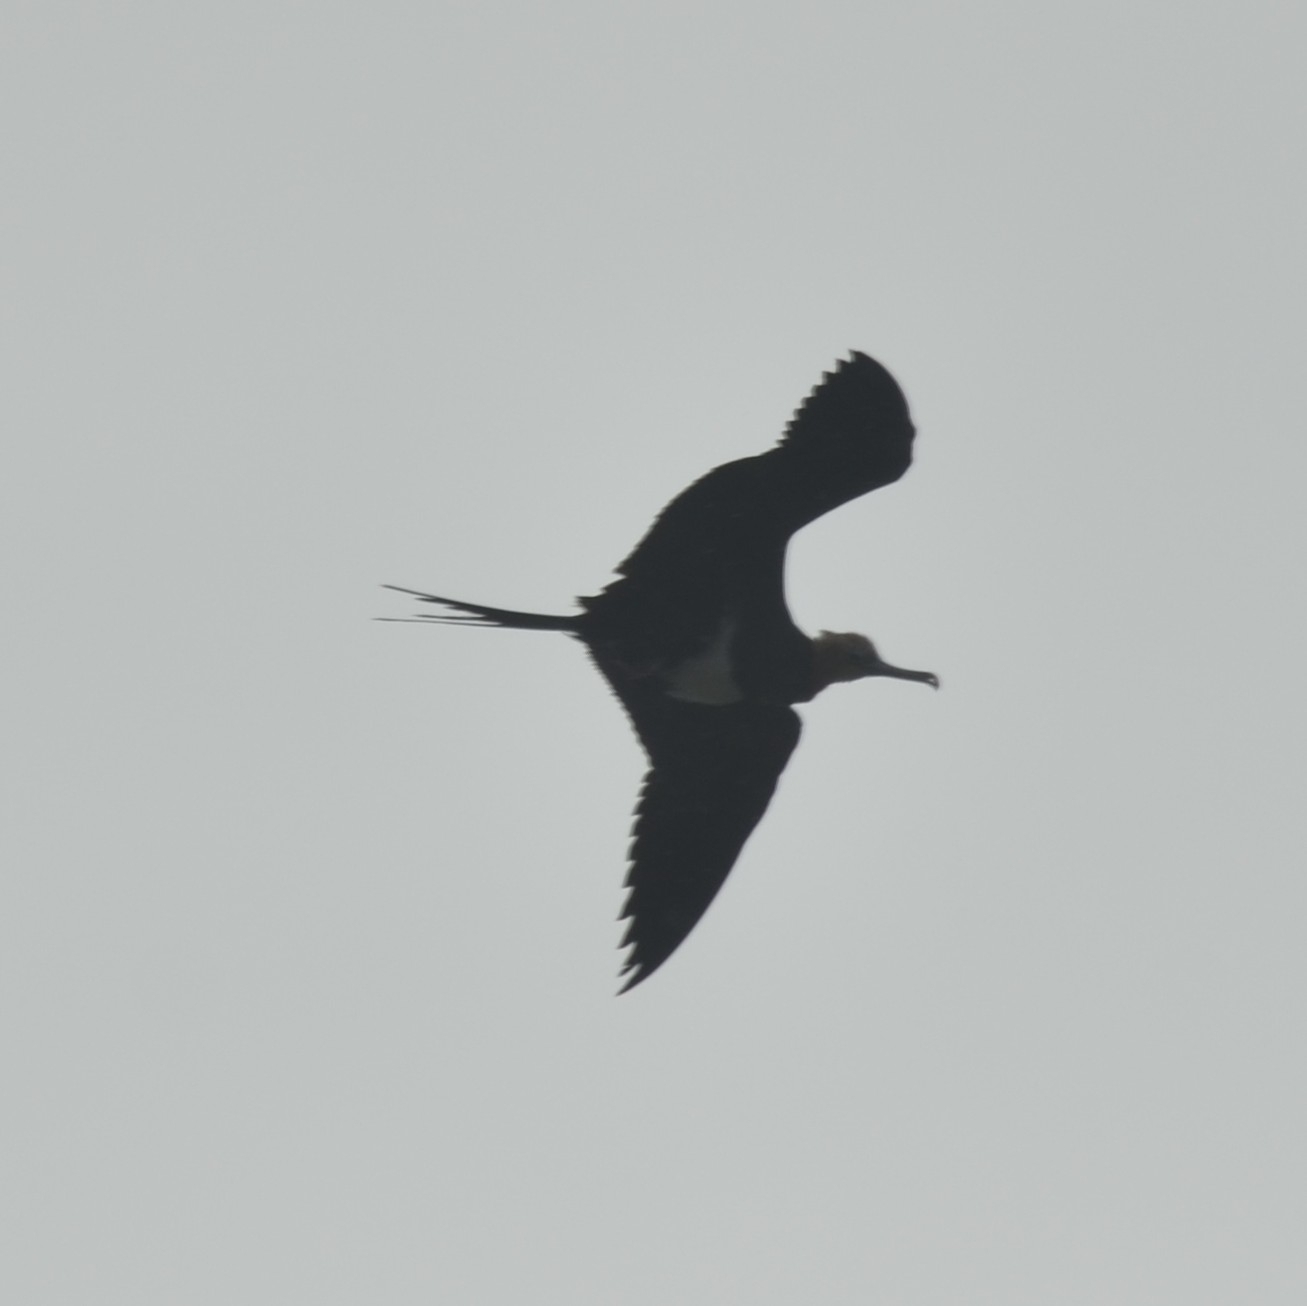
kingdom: Animalia
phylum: Chordata
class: Aves
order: Suliformes
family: Fregatidae
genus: Fregata
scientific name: Fregata ariel
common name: Lesser frigatebird
